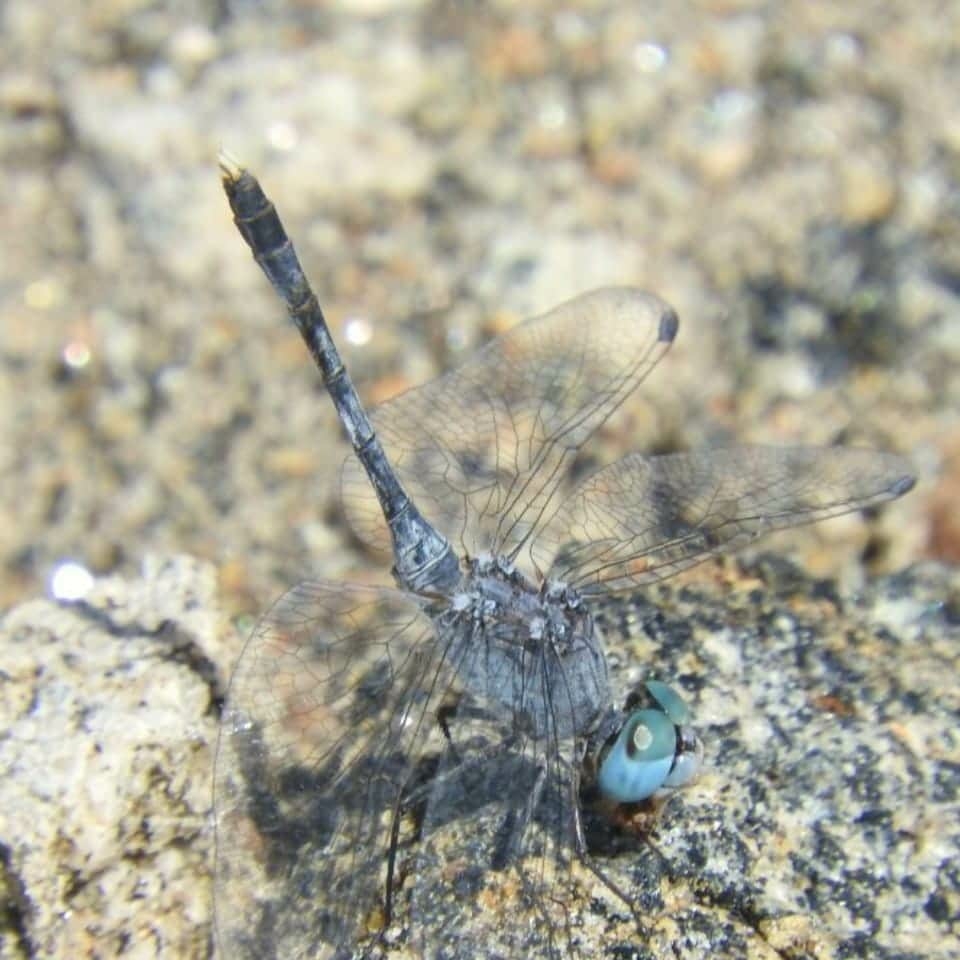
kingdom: Animalia
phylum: Arthropoda
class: Insecta
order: Odonata
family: Libellulidae
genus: Diplacodes
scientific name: Diplacodes trivialis
